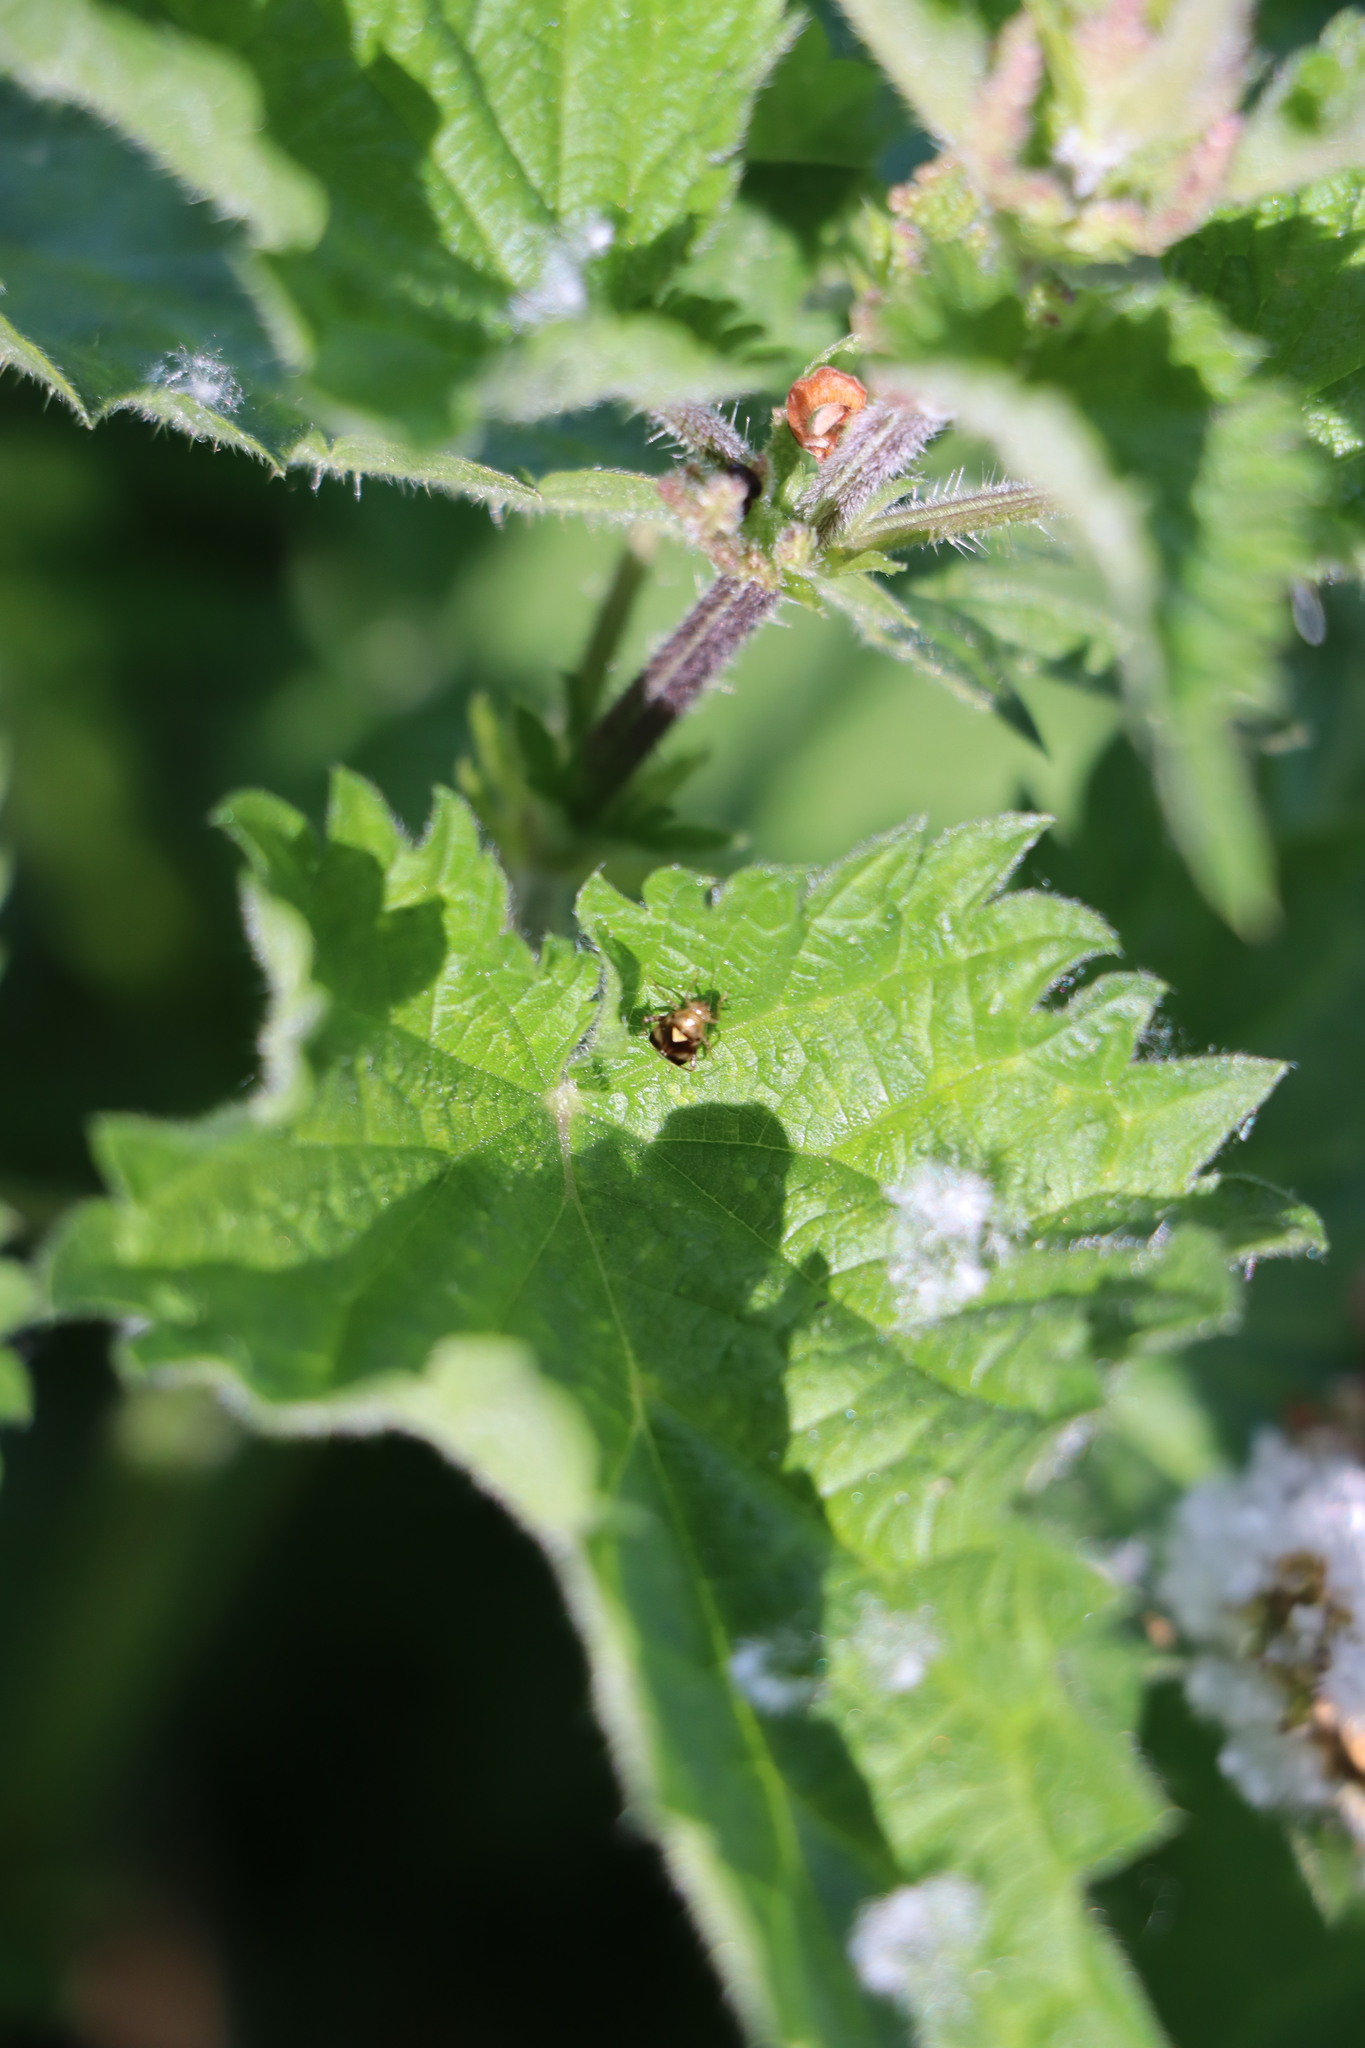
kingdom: Animalia
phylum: Arthropoda
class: Insecta
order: Hemiptera
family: Miridae
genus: Liocoris
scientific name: Liocoris tripustulatus
